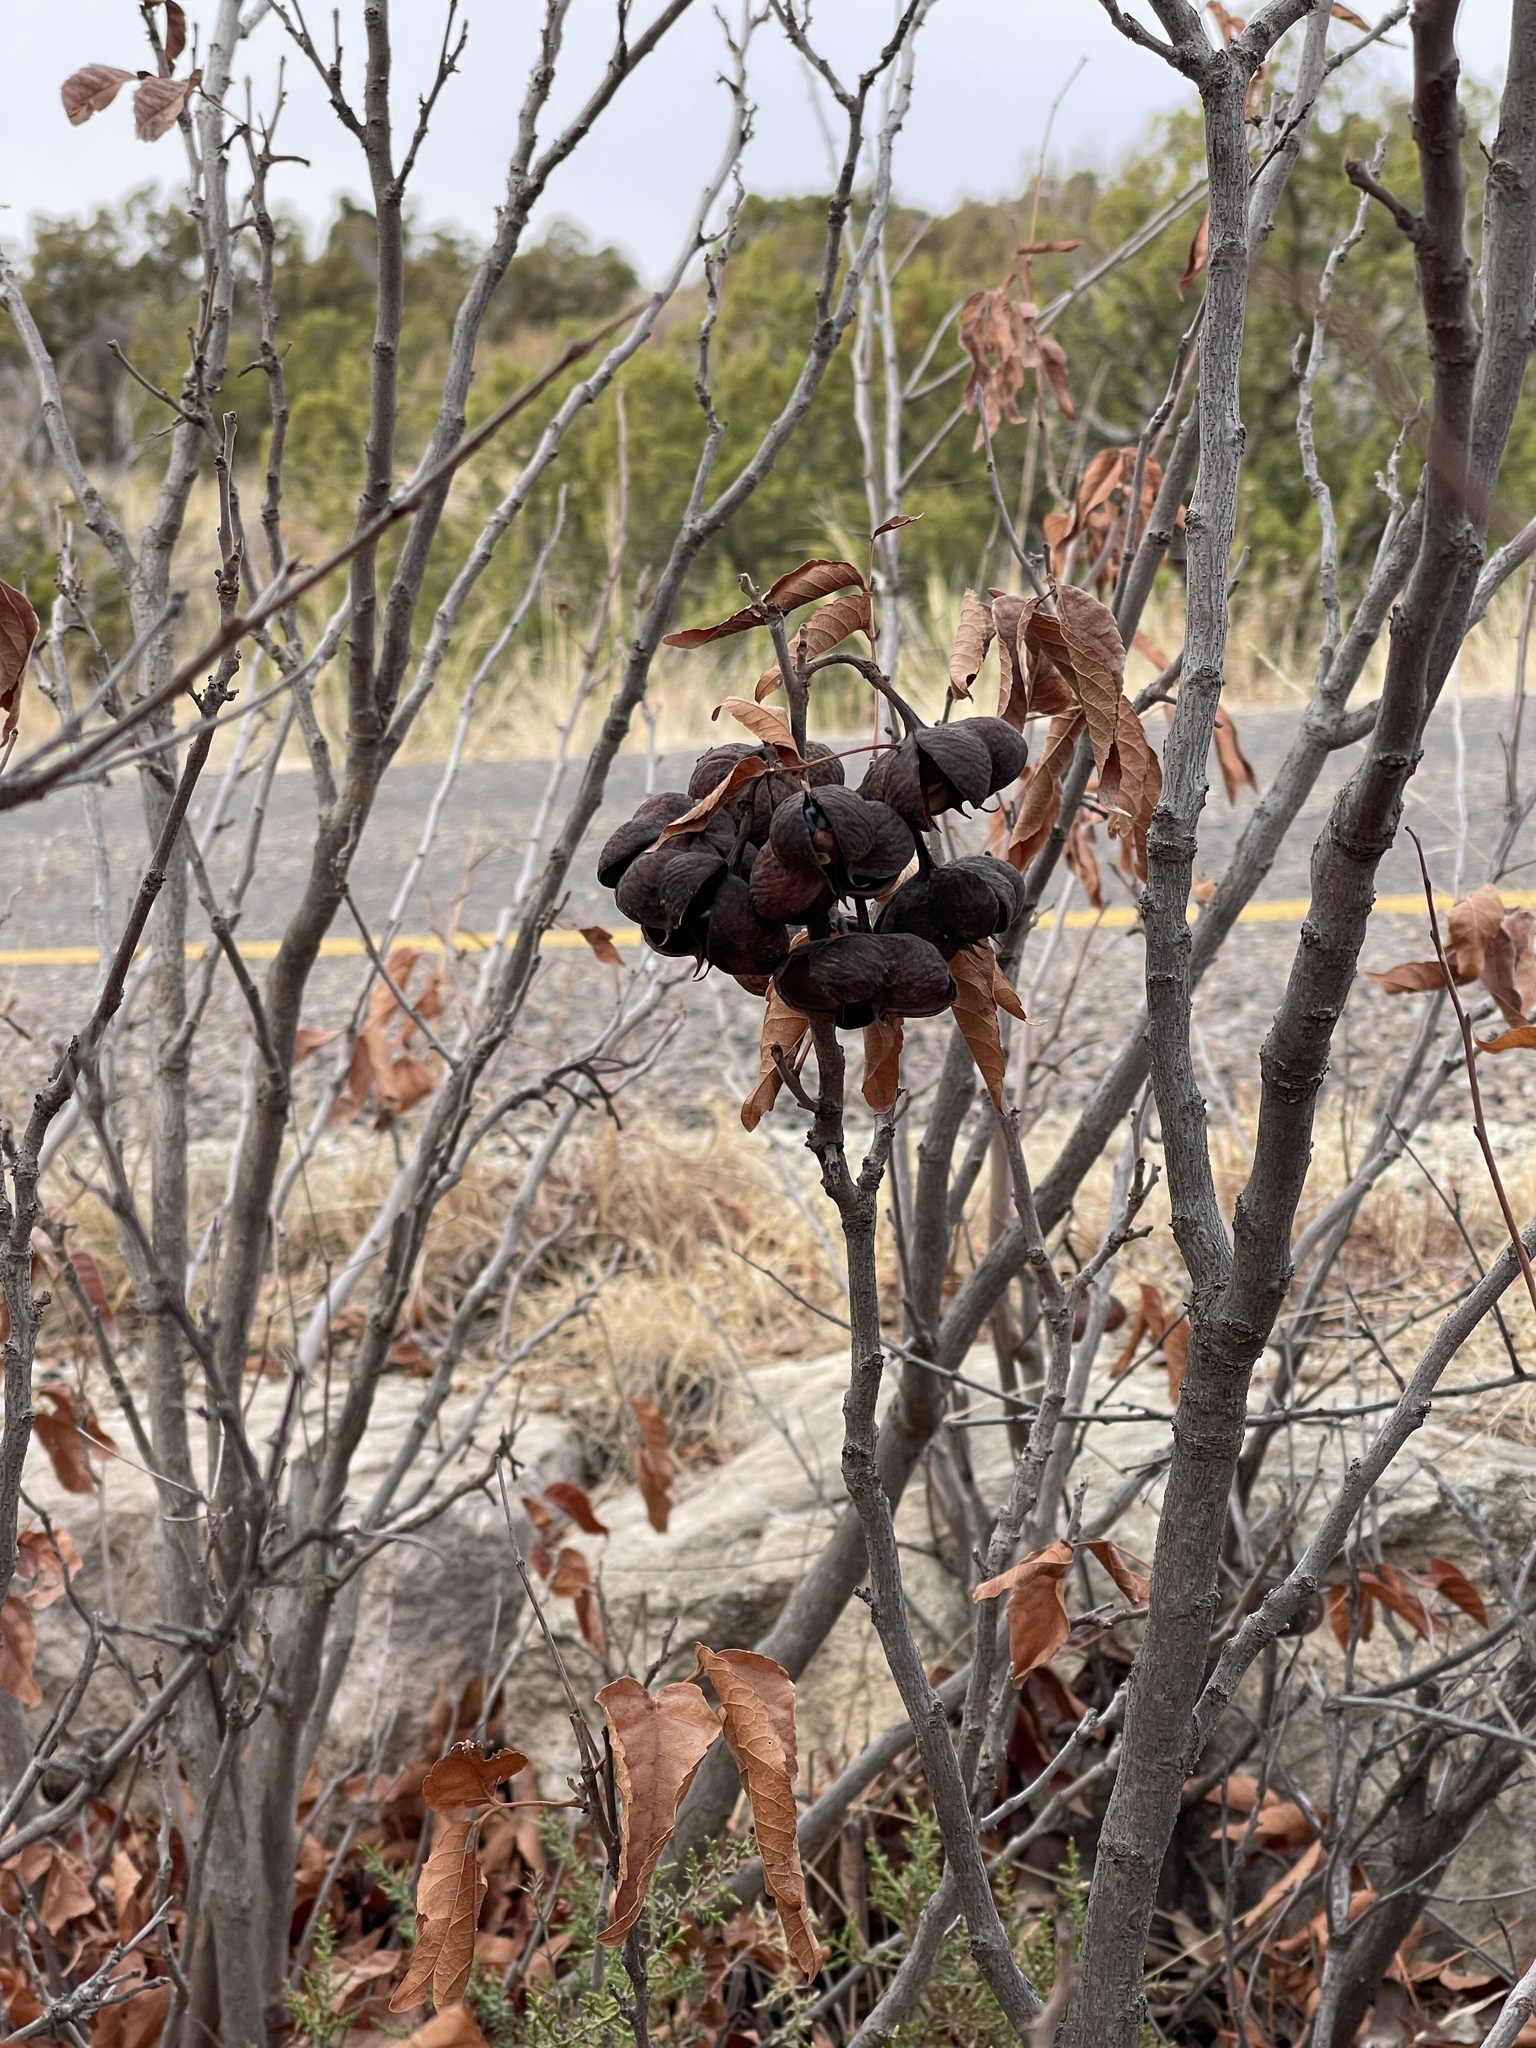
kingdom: Plantae
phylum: Tracheophyta
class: Magnoliopsida
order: Sapindales
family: Sapindaceae
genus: Ungnadia
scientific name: Ungnadia speciosa
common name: Texas-buckeye
